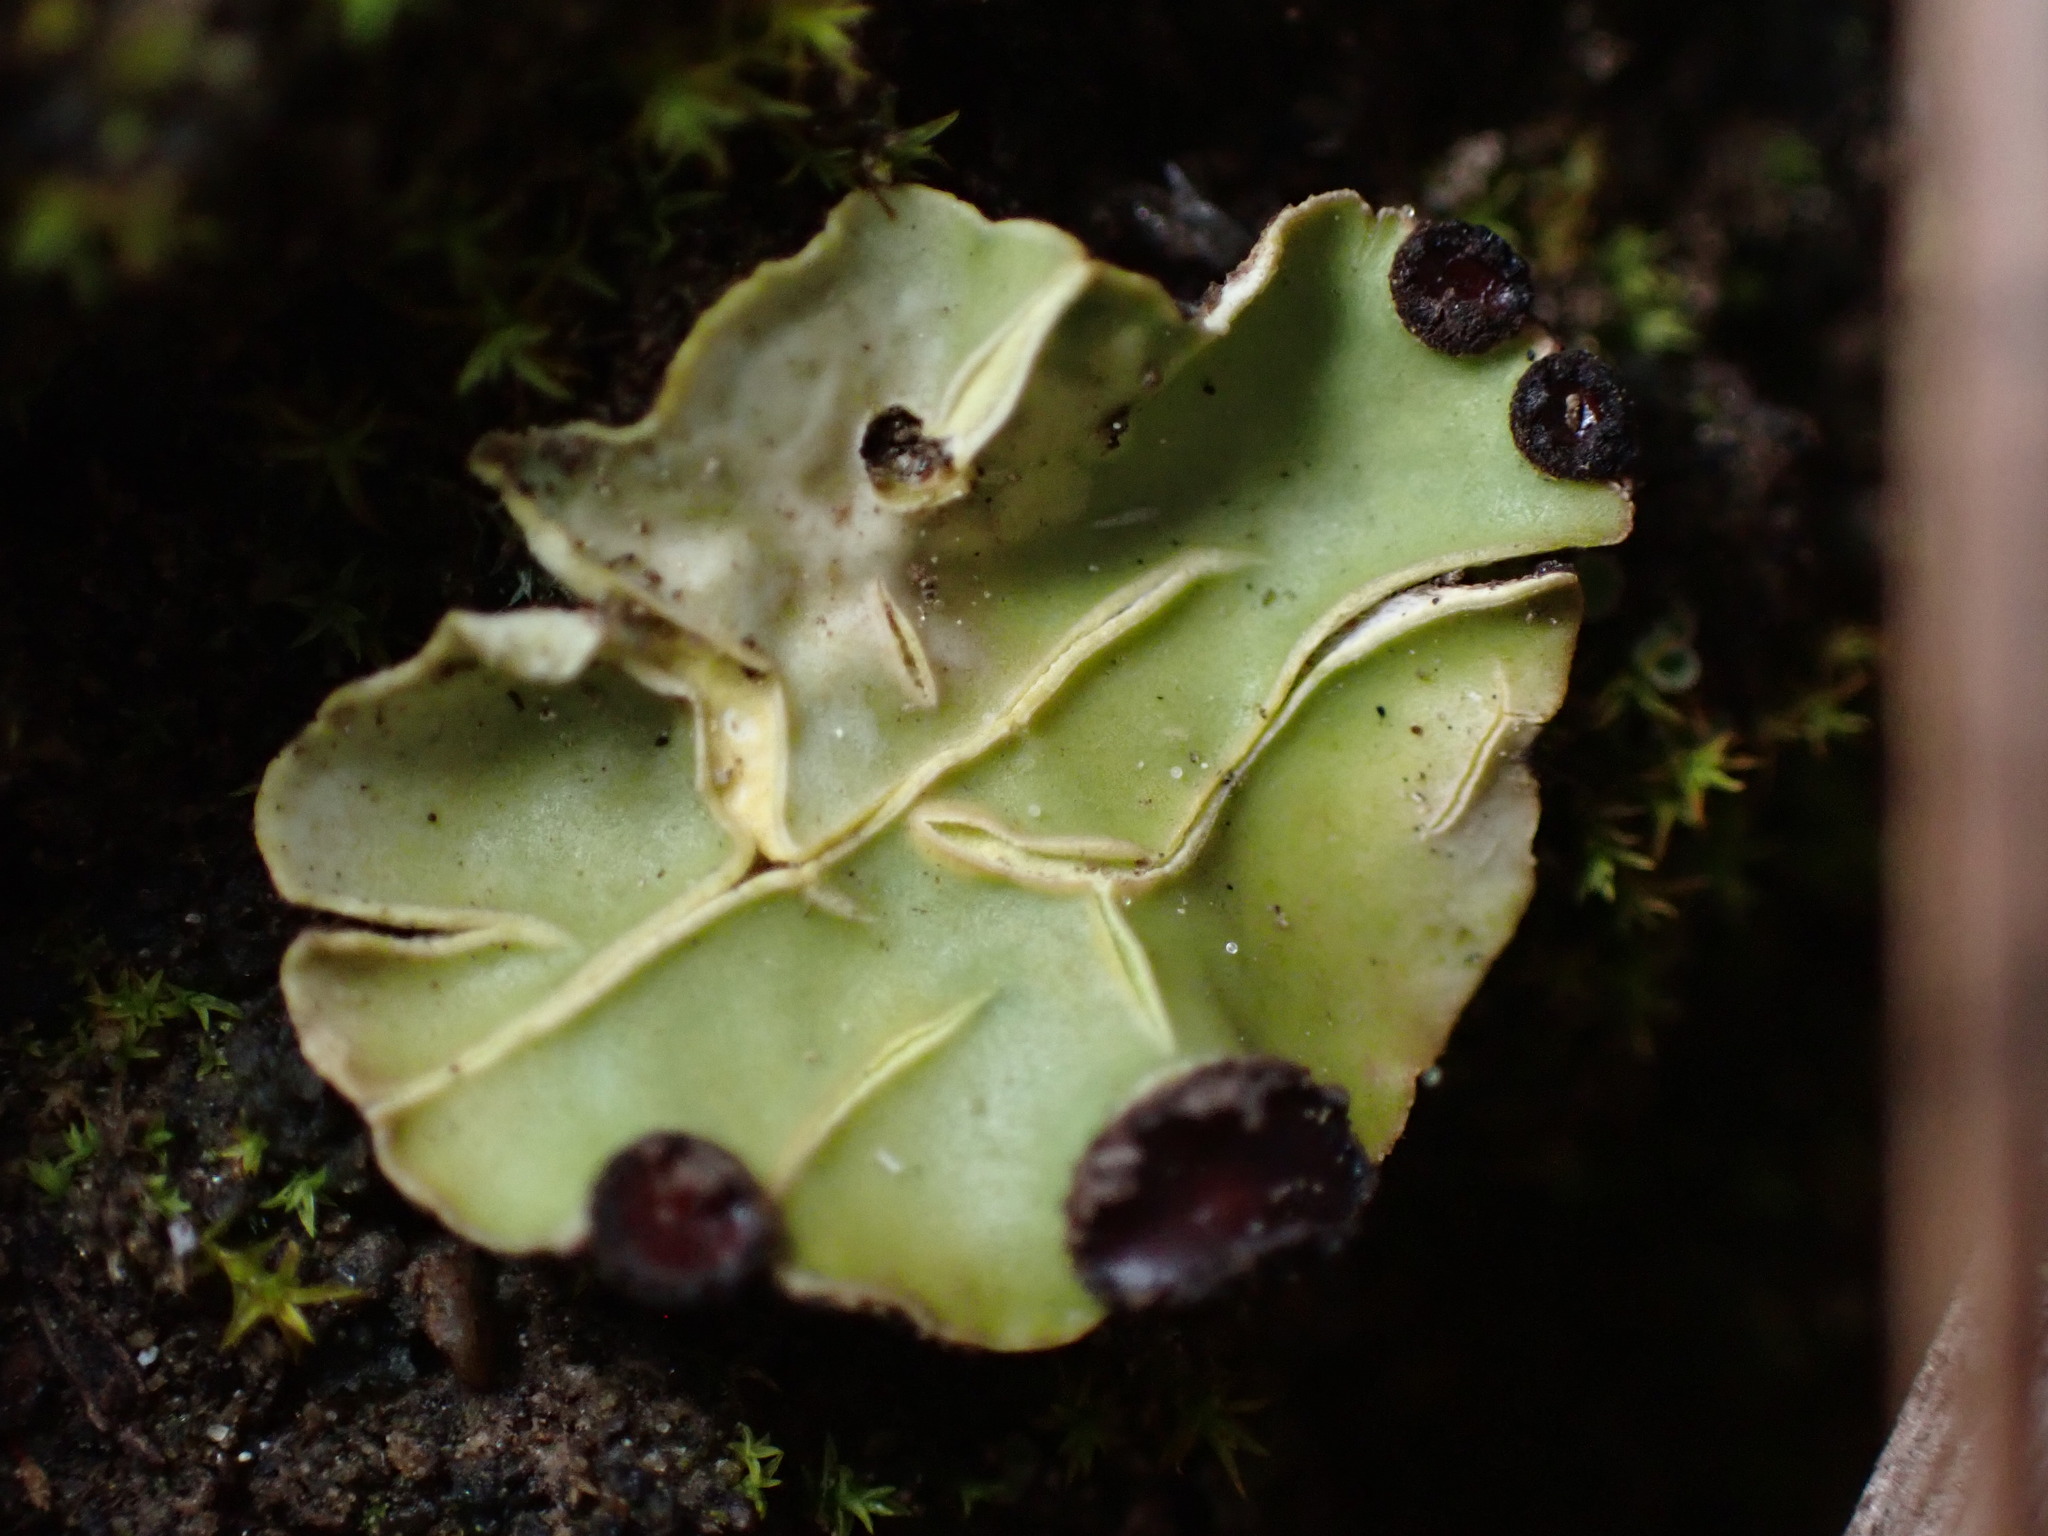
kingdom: Fungi
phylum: Ascomycota
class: Lecanoromycetes
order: Peltigerales
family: Peltigeraceae
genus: Peltigera
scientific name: Peltigera venosa
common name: Pixie gowns lichen
